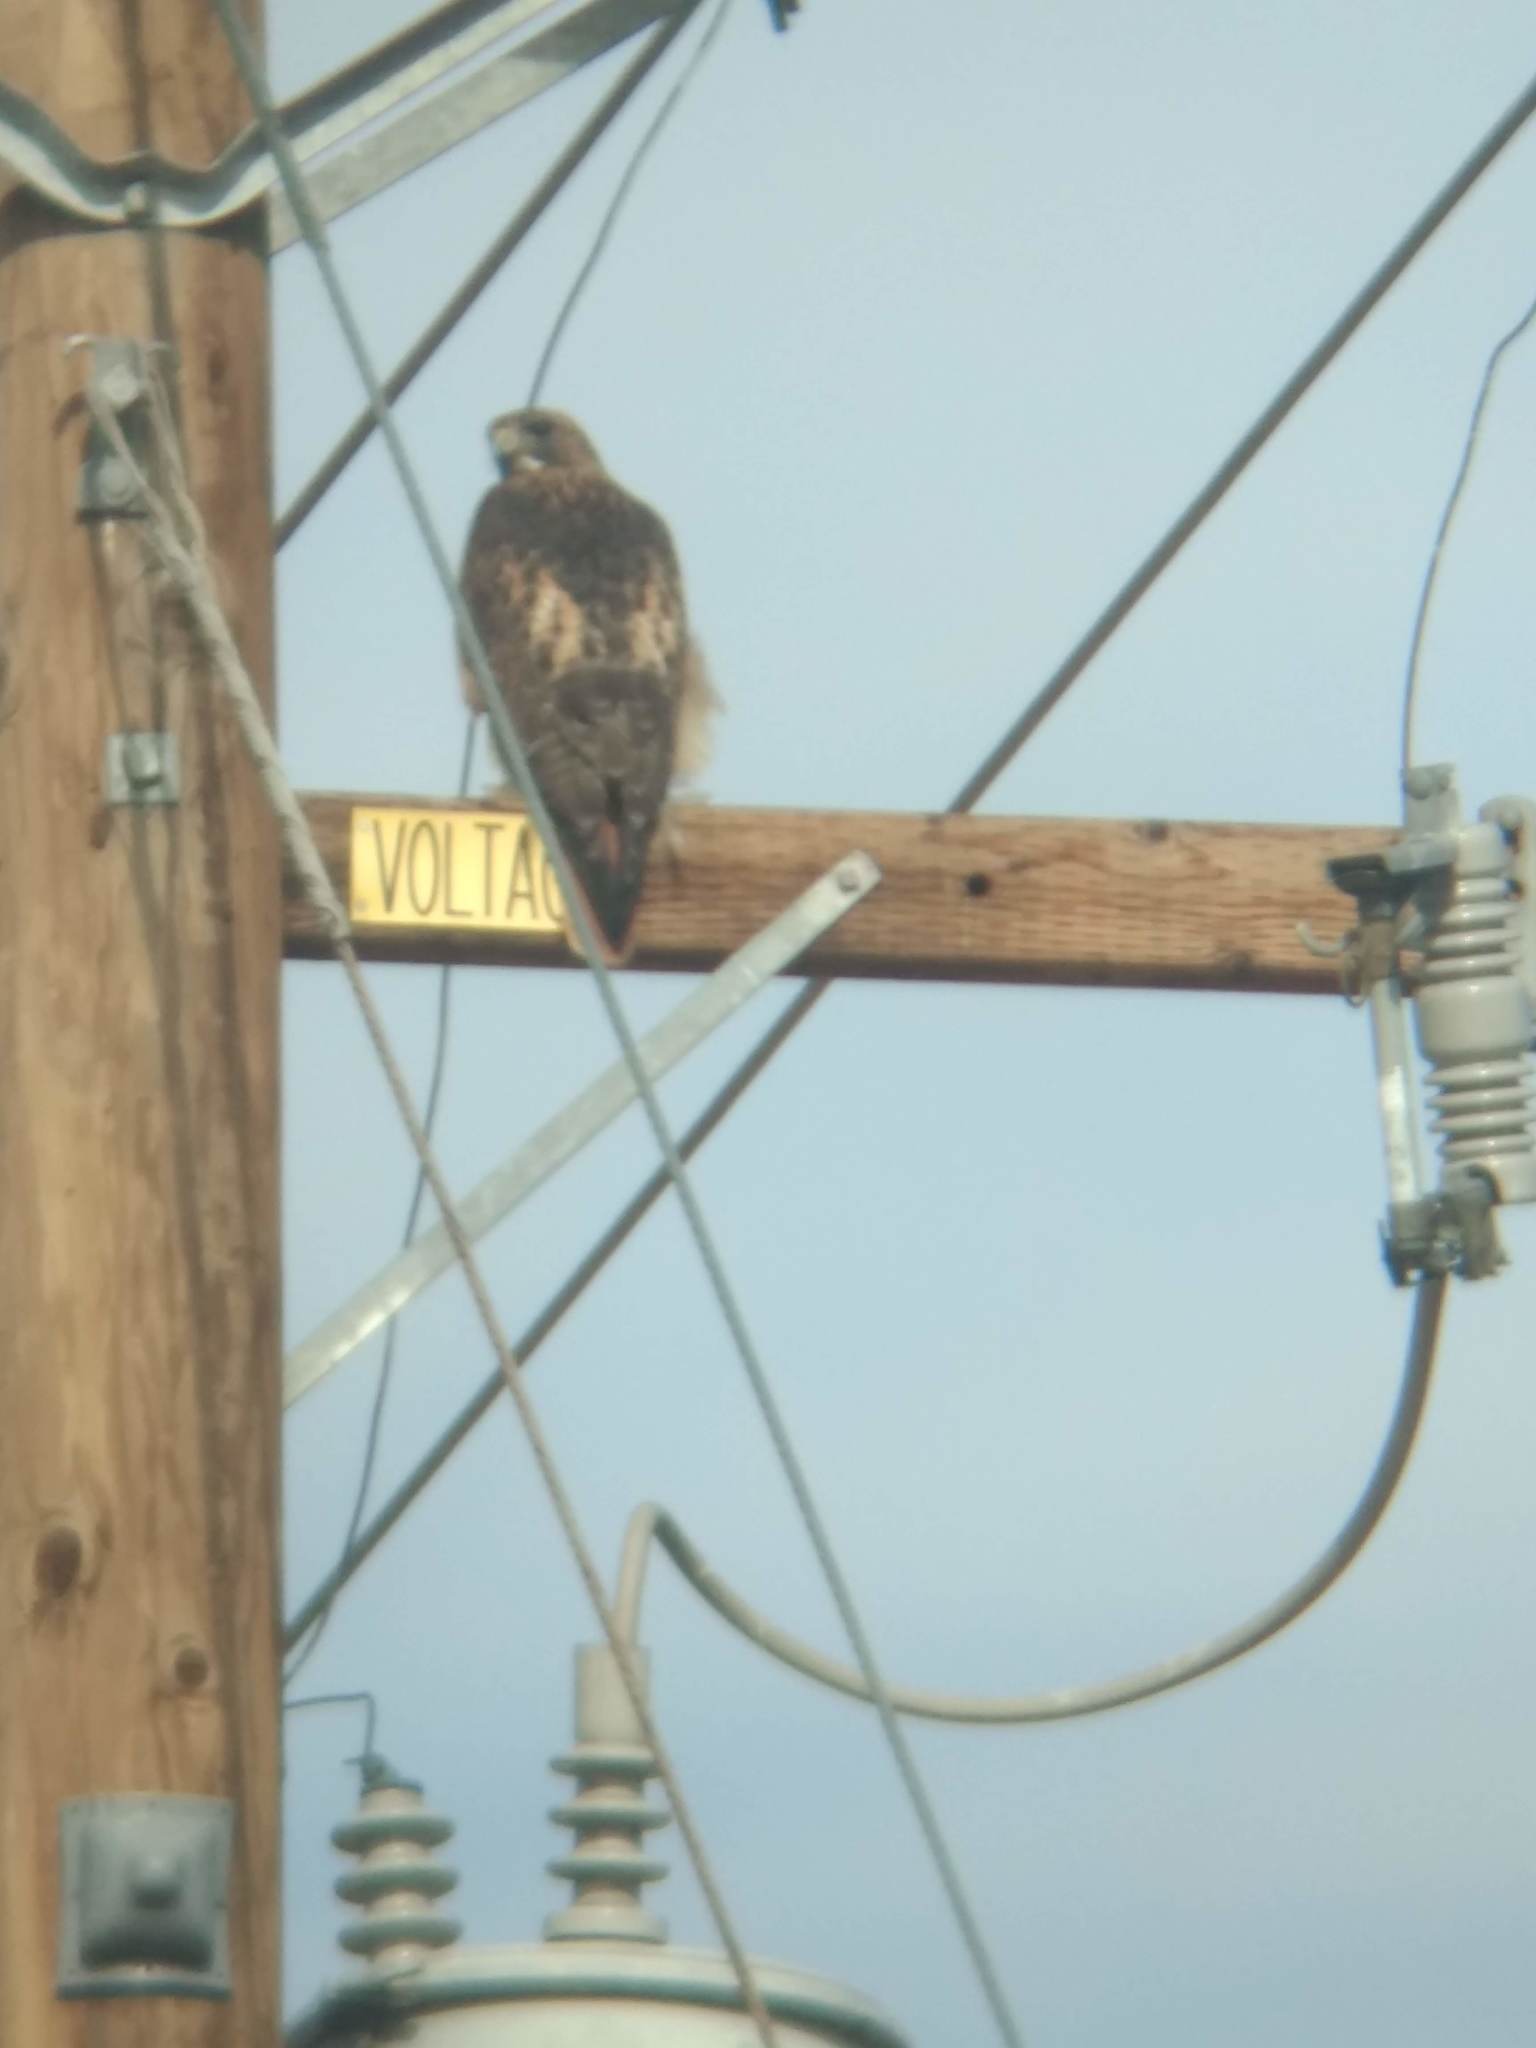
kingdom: Animalia
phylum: Chordata
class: Aves
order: Accipitriformes
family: Accipitridae
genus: Buteo
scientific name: Buteo jamaicensis
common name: Red-tailed hawk
